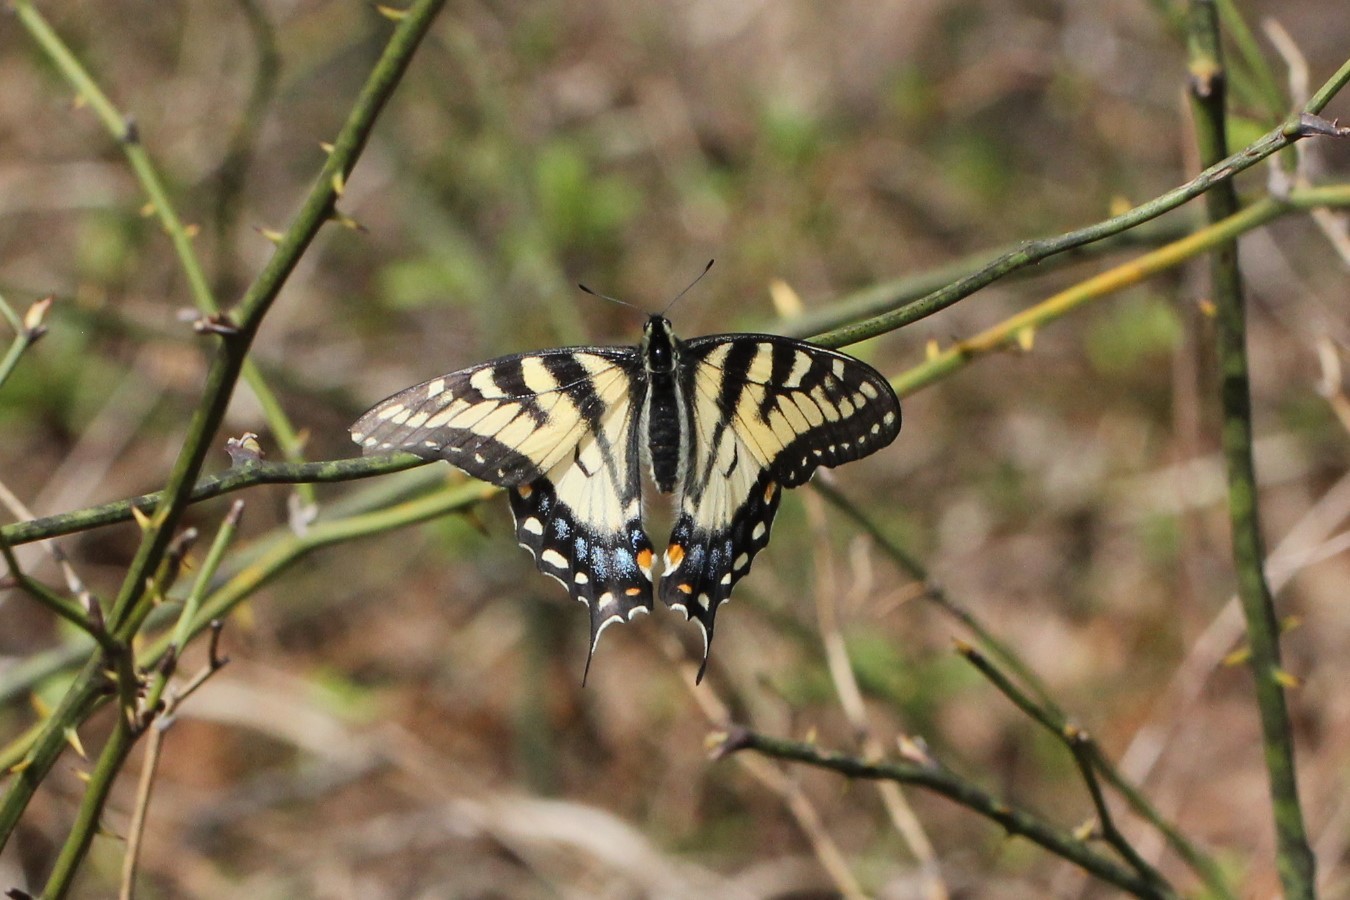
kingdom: Animalia
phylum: Arthropoda
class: Insecta
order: Lepidoptera
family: Papilionidae
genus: Papilio
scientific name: Papilio glaucus
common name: Tiger swallowtail
